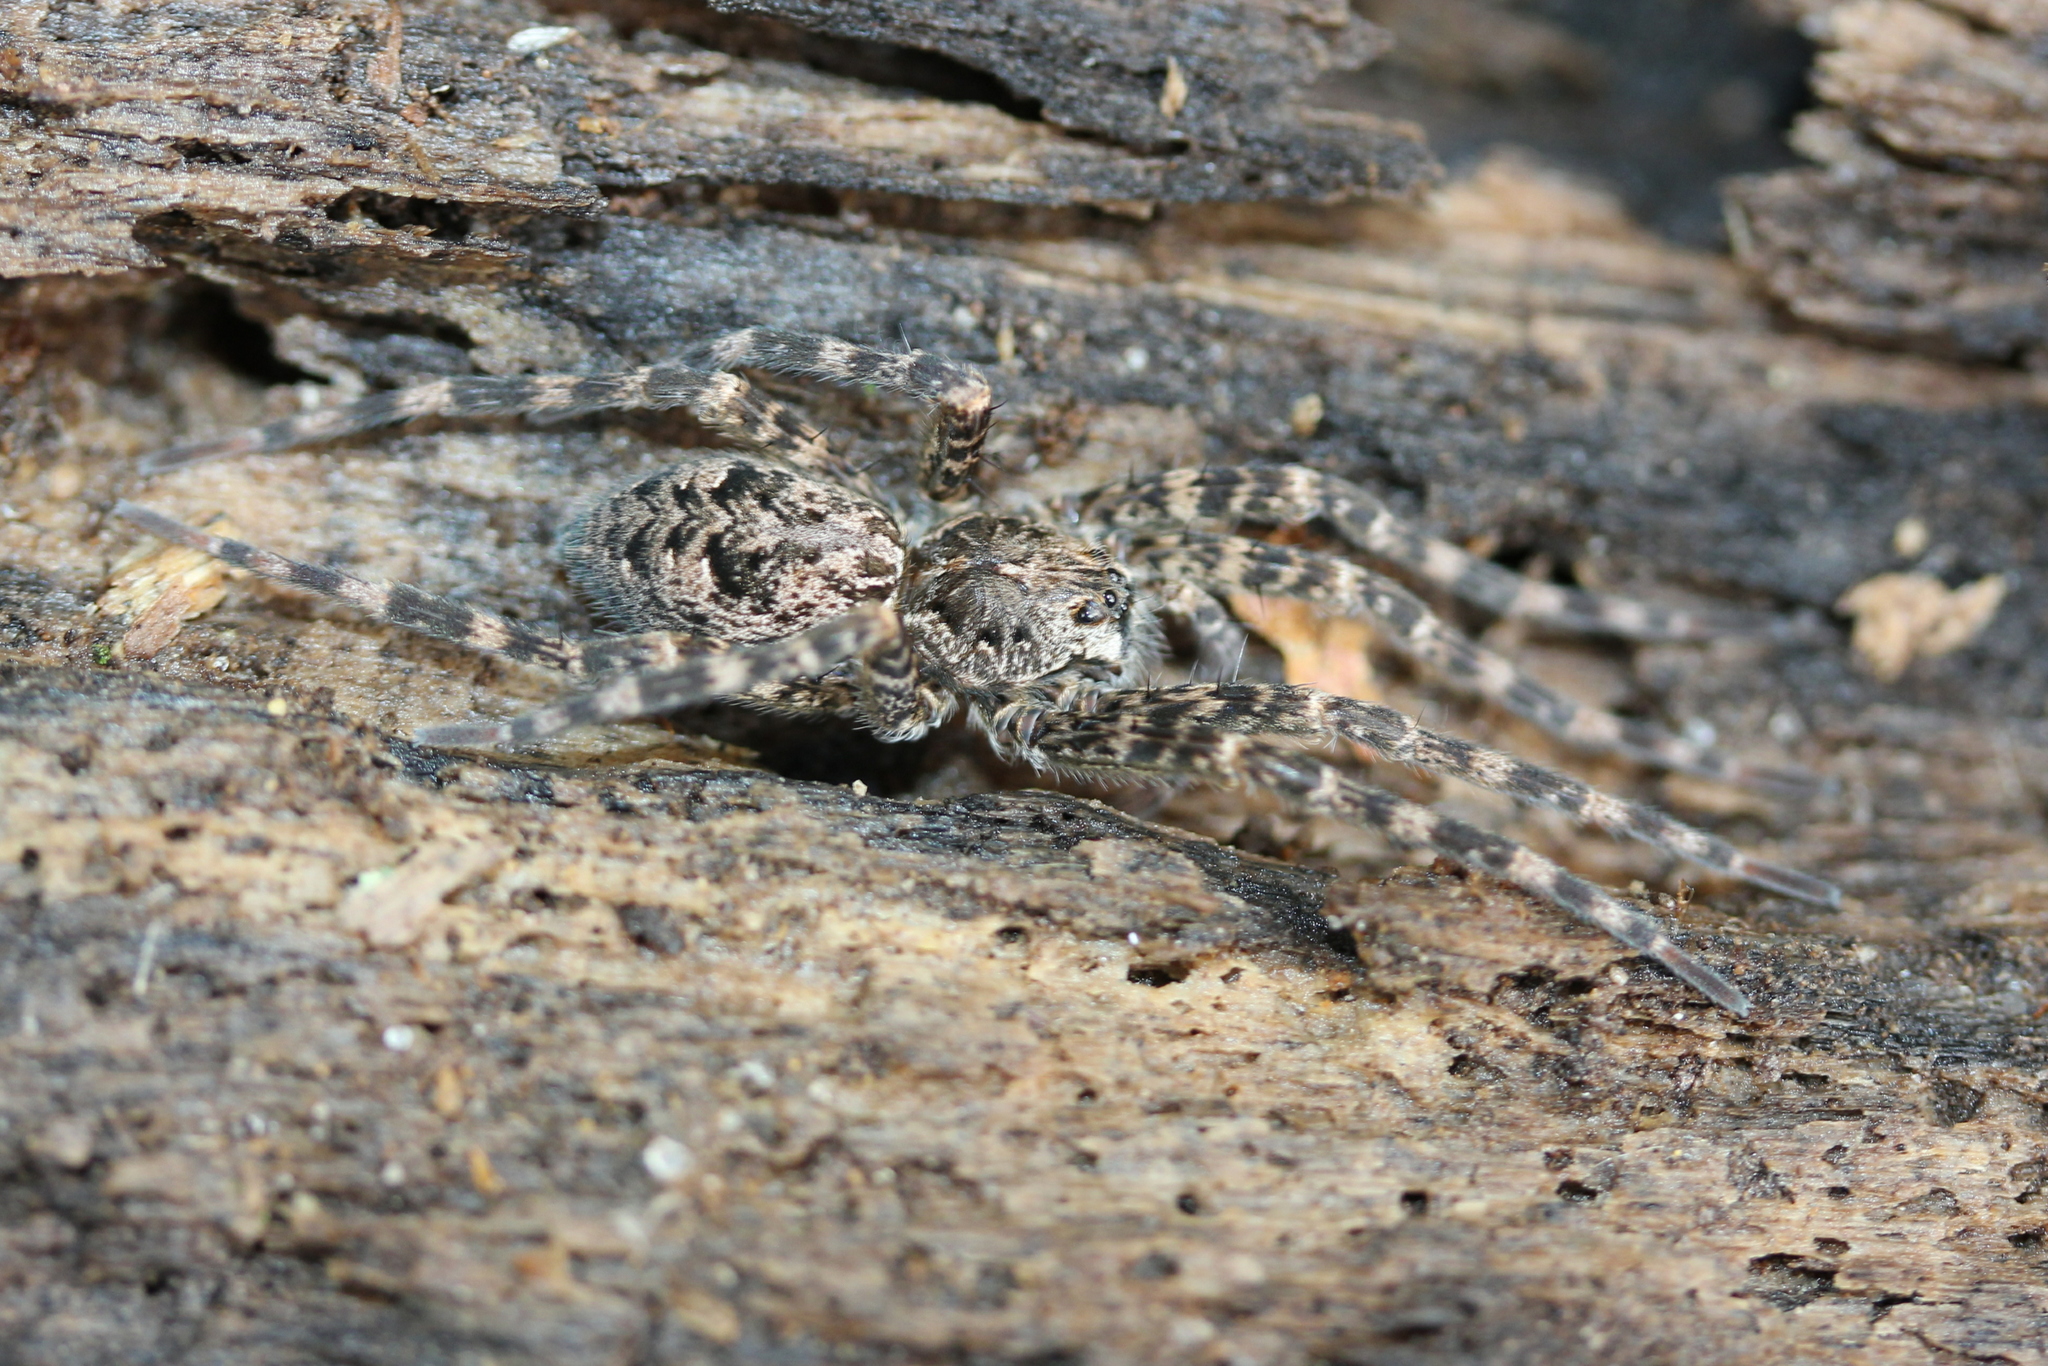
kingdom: Animalia
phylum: Arthropoda
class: Arachnida
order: Araneae
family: Pisauridae
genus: Dolomedes
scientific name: Dolomedes tenebrosus
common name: Dark fishing spider
